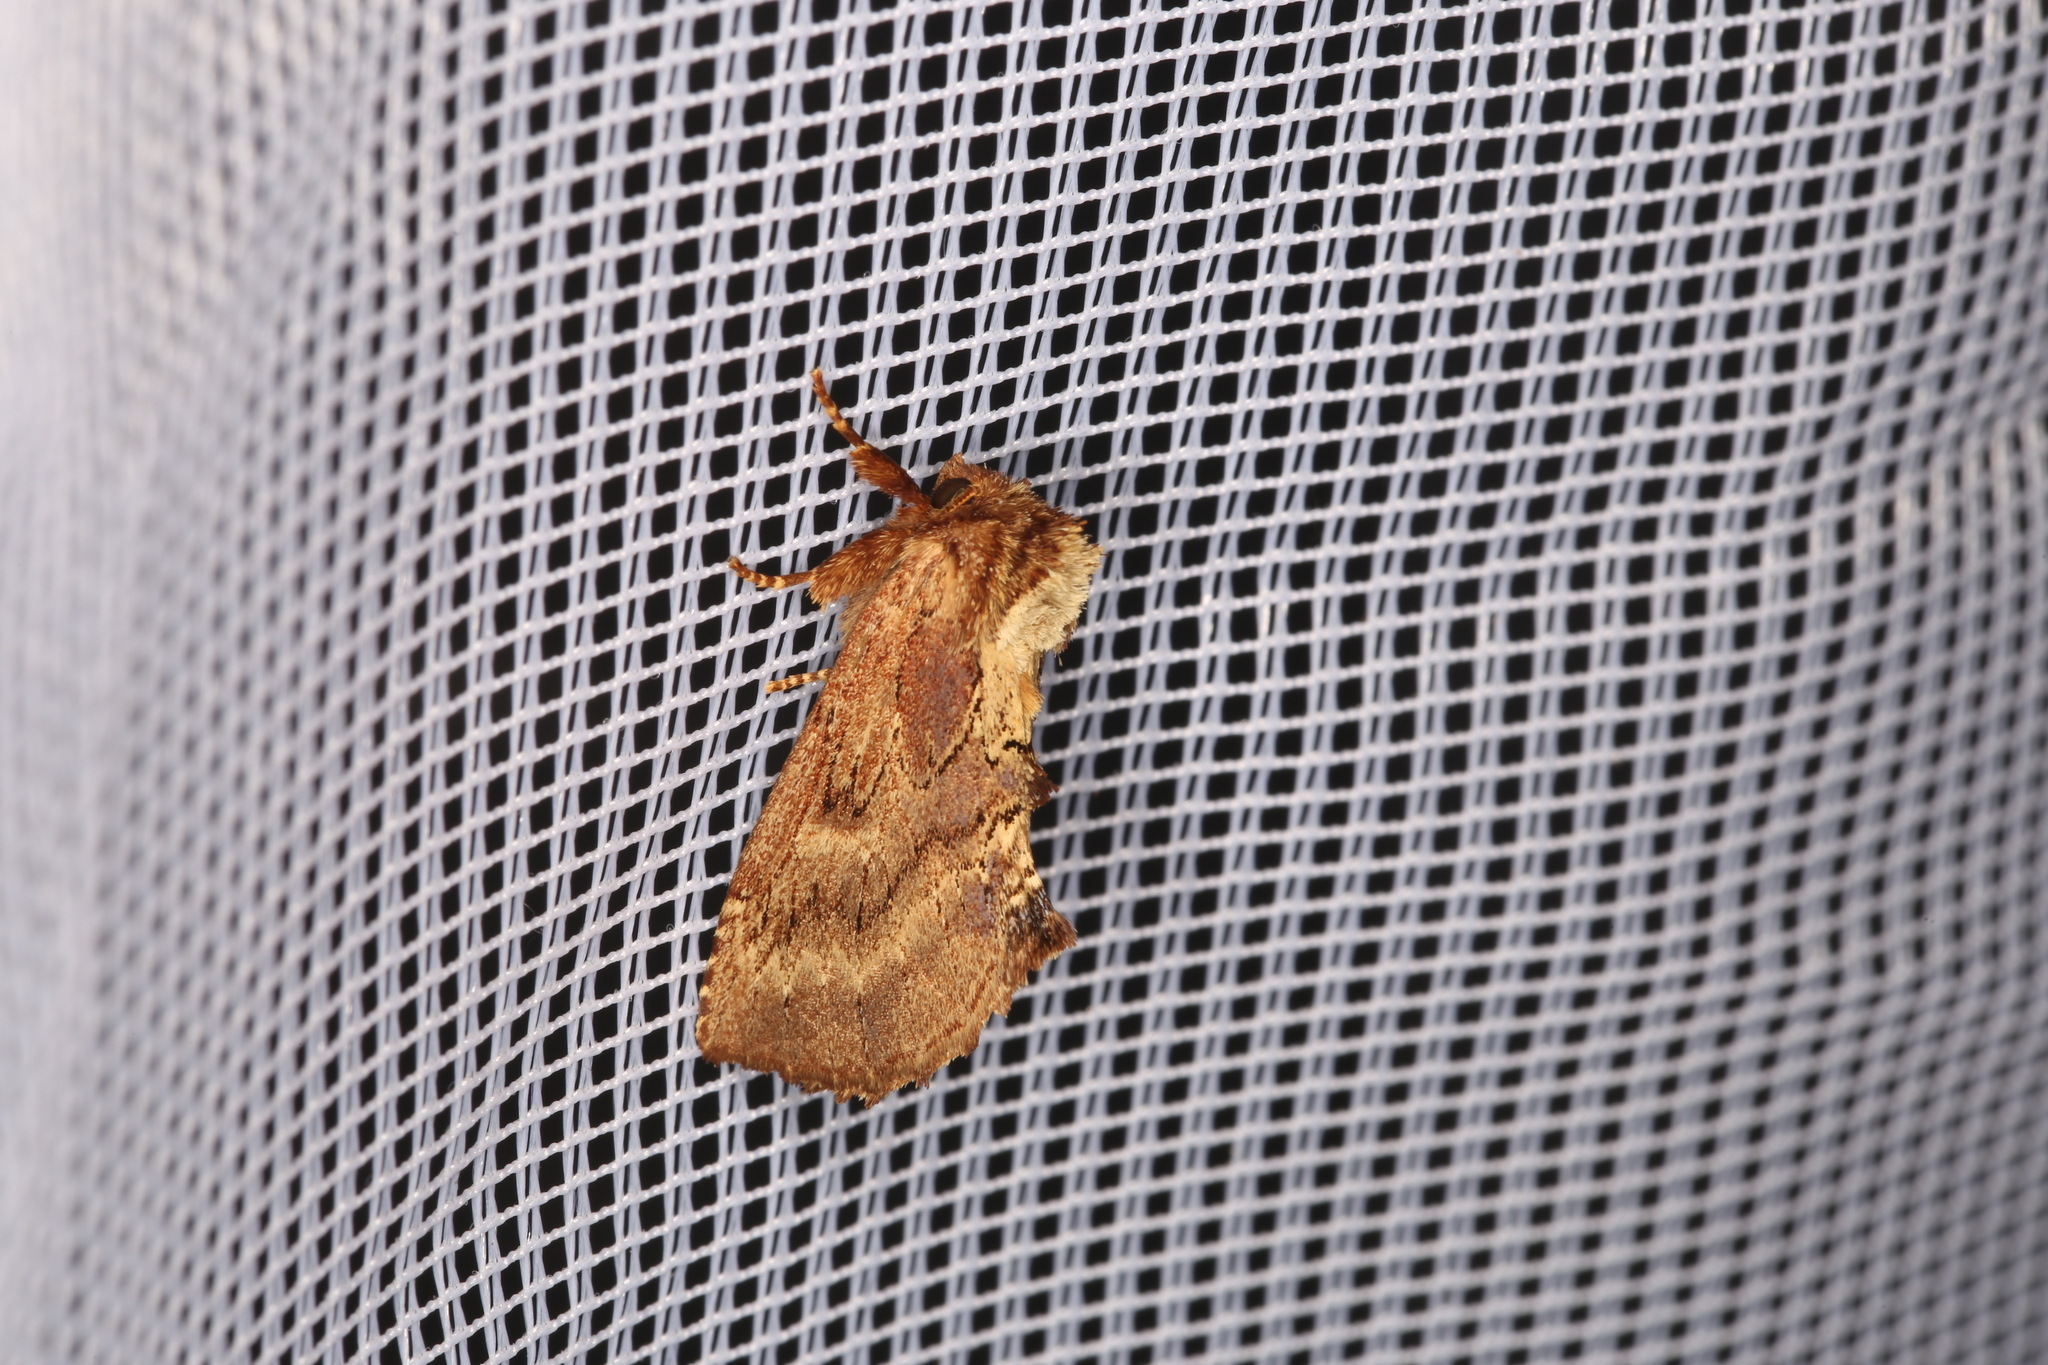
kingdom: Animalia
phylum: Arthropoda
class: Insecta
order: Lepidoptera
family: Notodontidae
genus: Ptilodon
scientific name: Ptilodon capucina
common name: Coxcomb prominent
